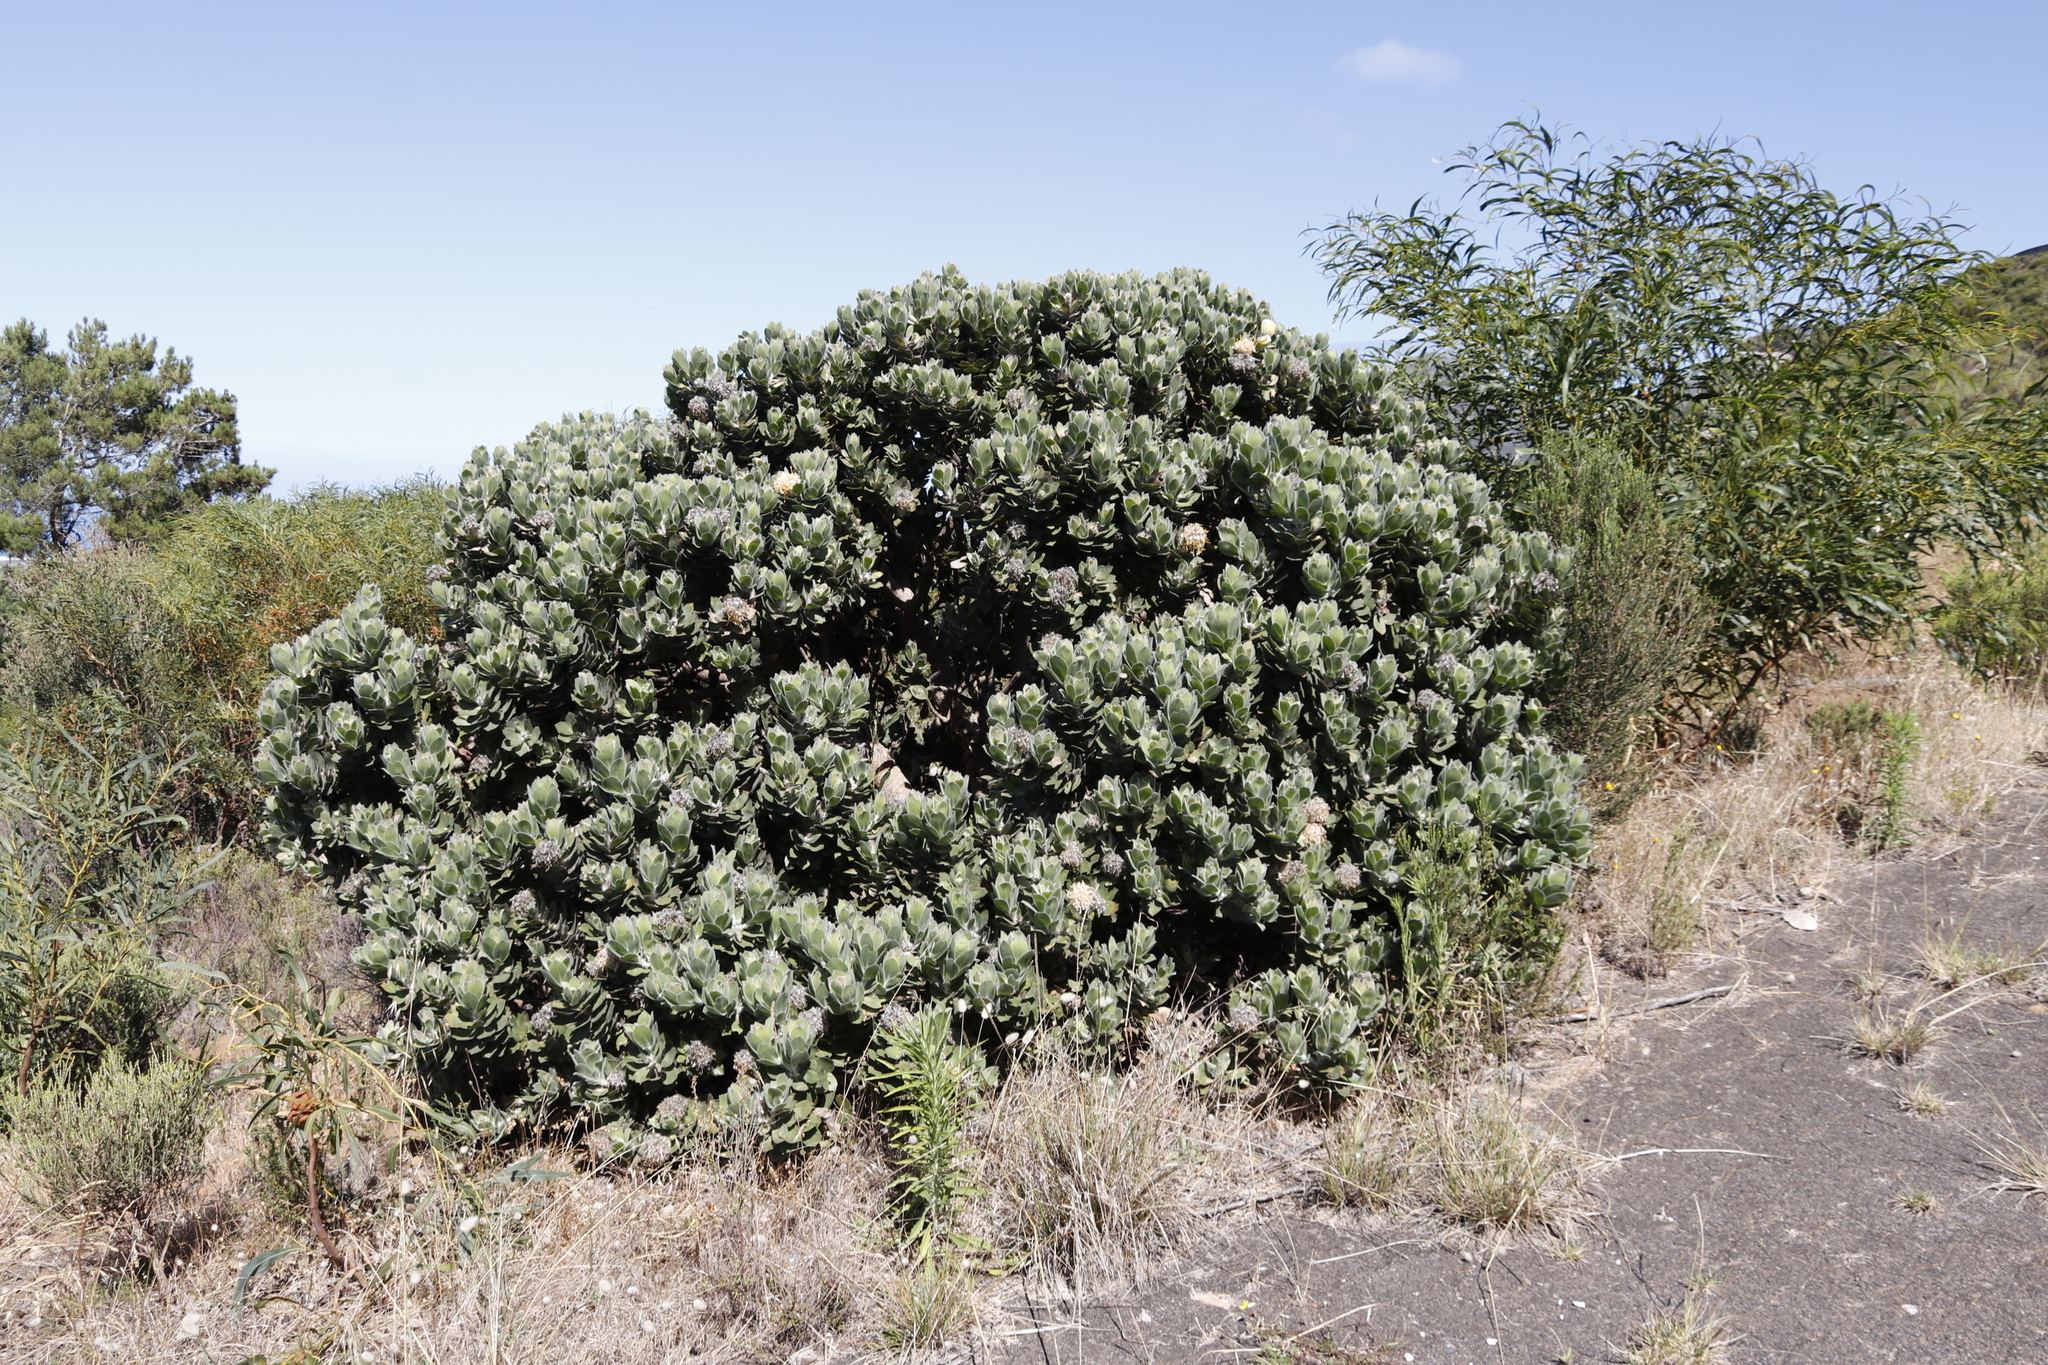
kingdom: Plantae
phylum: Tracheophyta
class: Magnoliopsida
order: Proteales
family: Proteaceae
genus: Leucospermum
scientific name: Leucospermum conocarpodendron
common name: Tree pincushion
